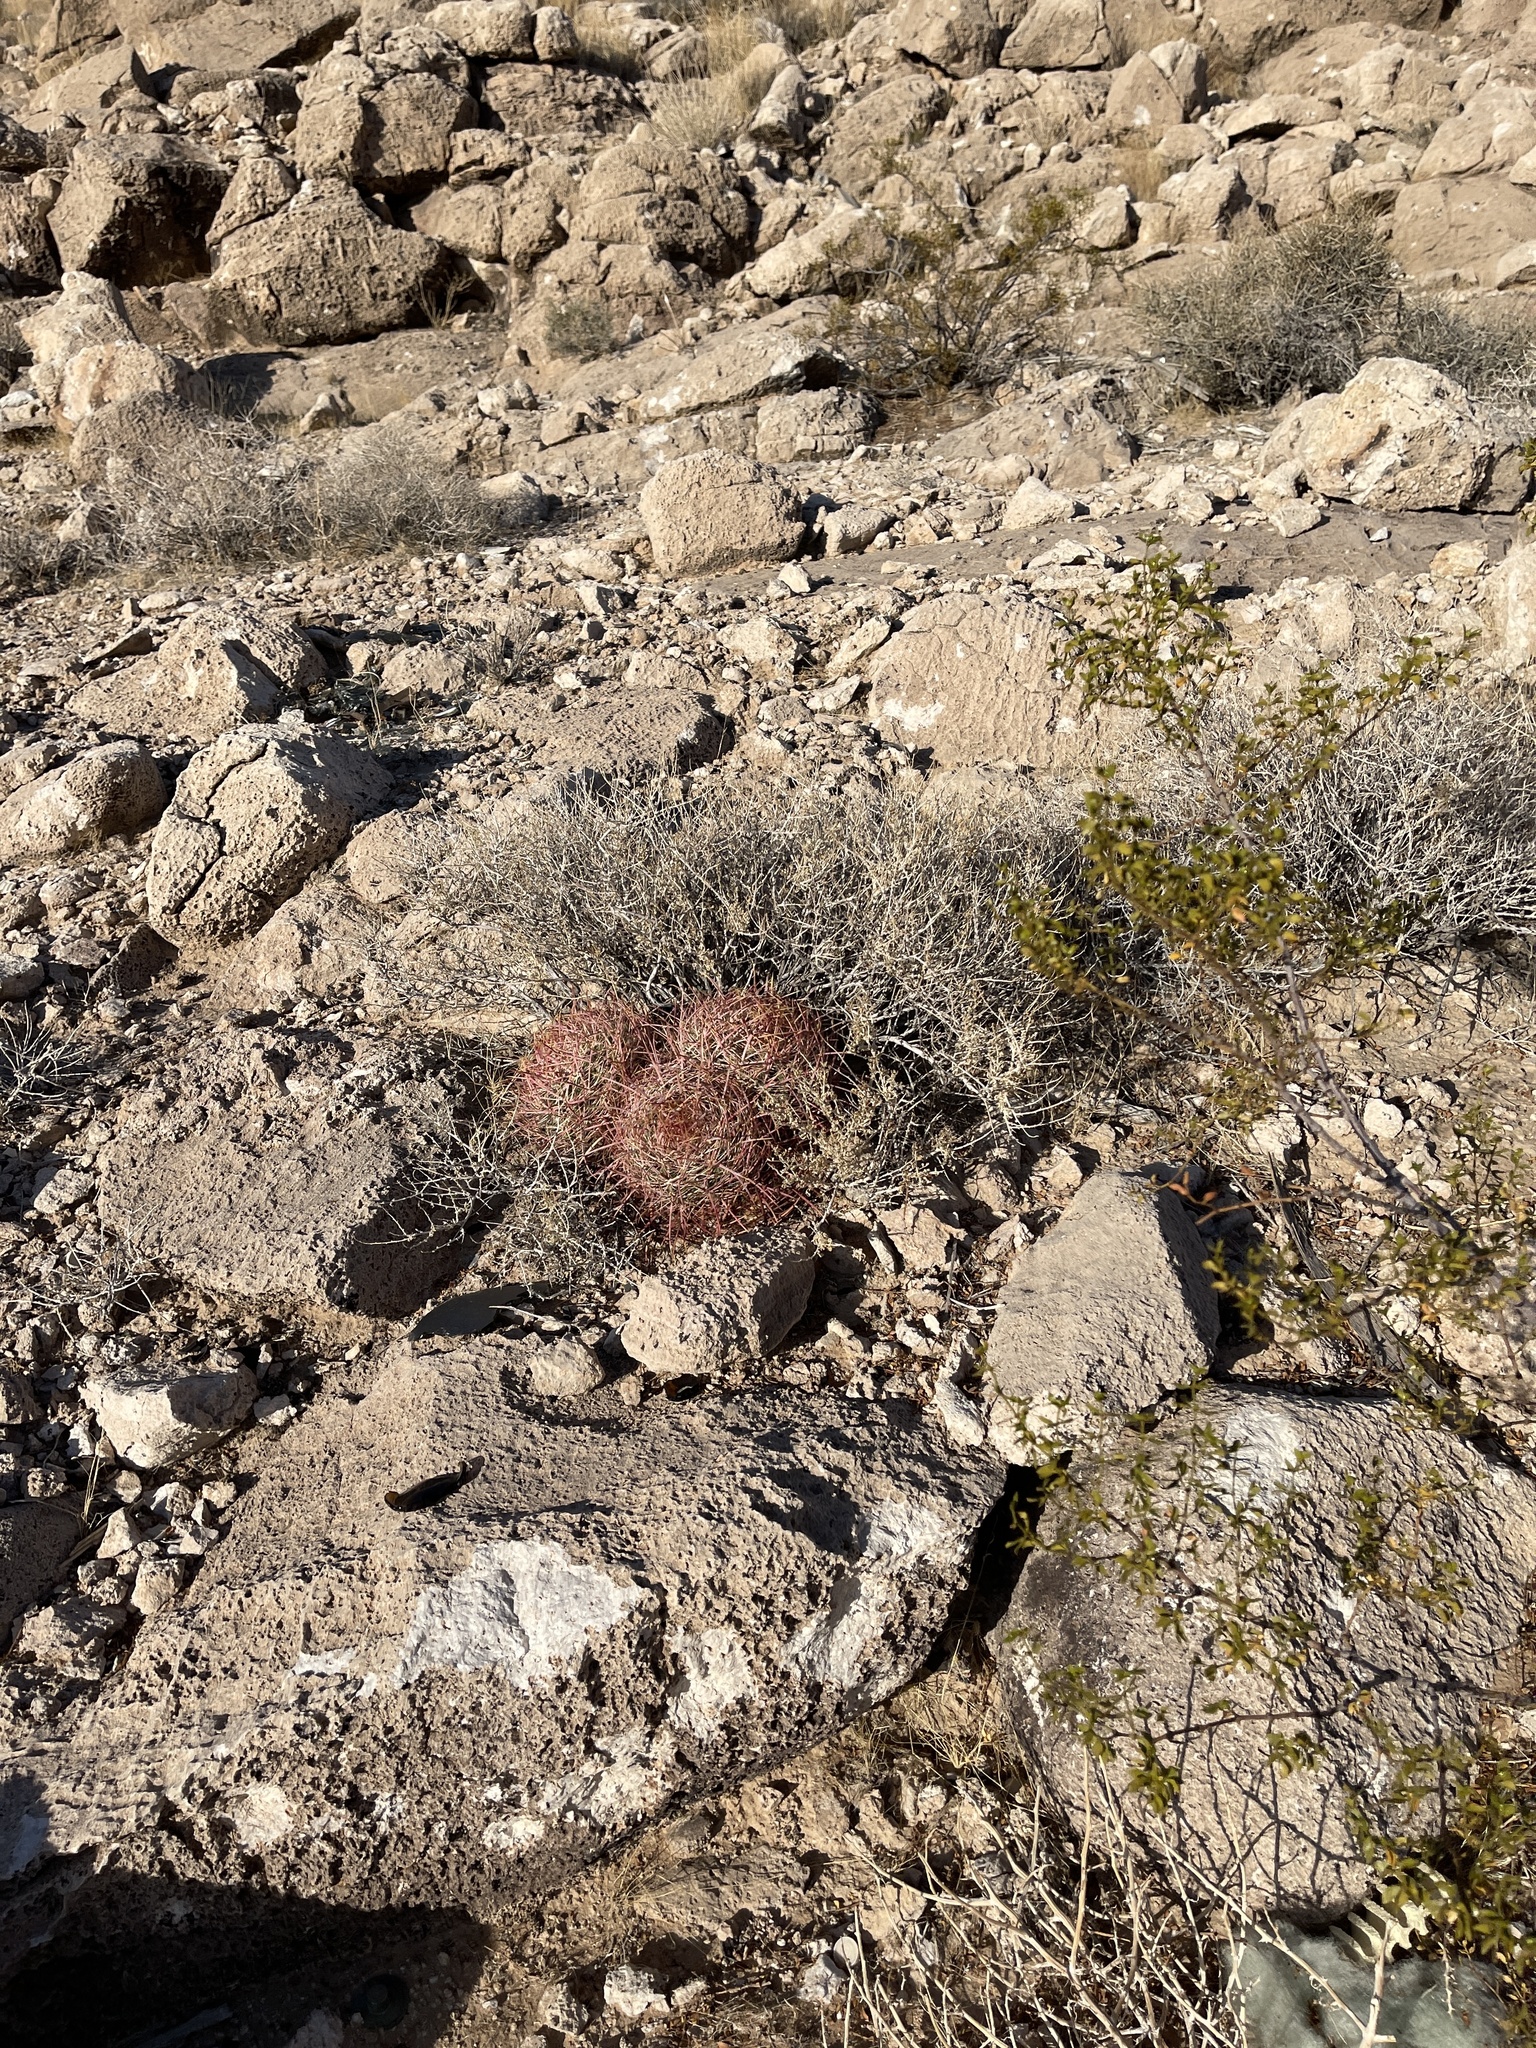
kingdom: Plantae
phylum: Tracheophyta
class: Magnoliopsida
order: Caryophyllales
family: Cactaceae
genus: Ferocactus
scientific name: Ferocactus cylindraceus
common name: California barrel cactus
